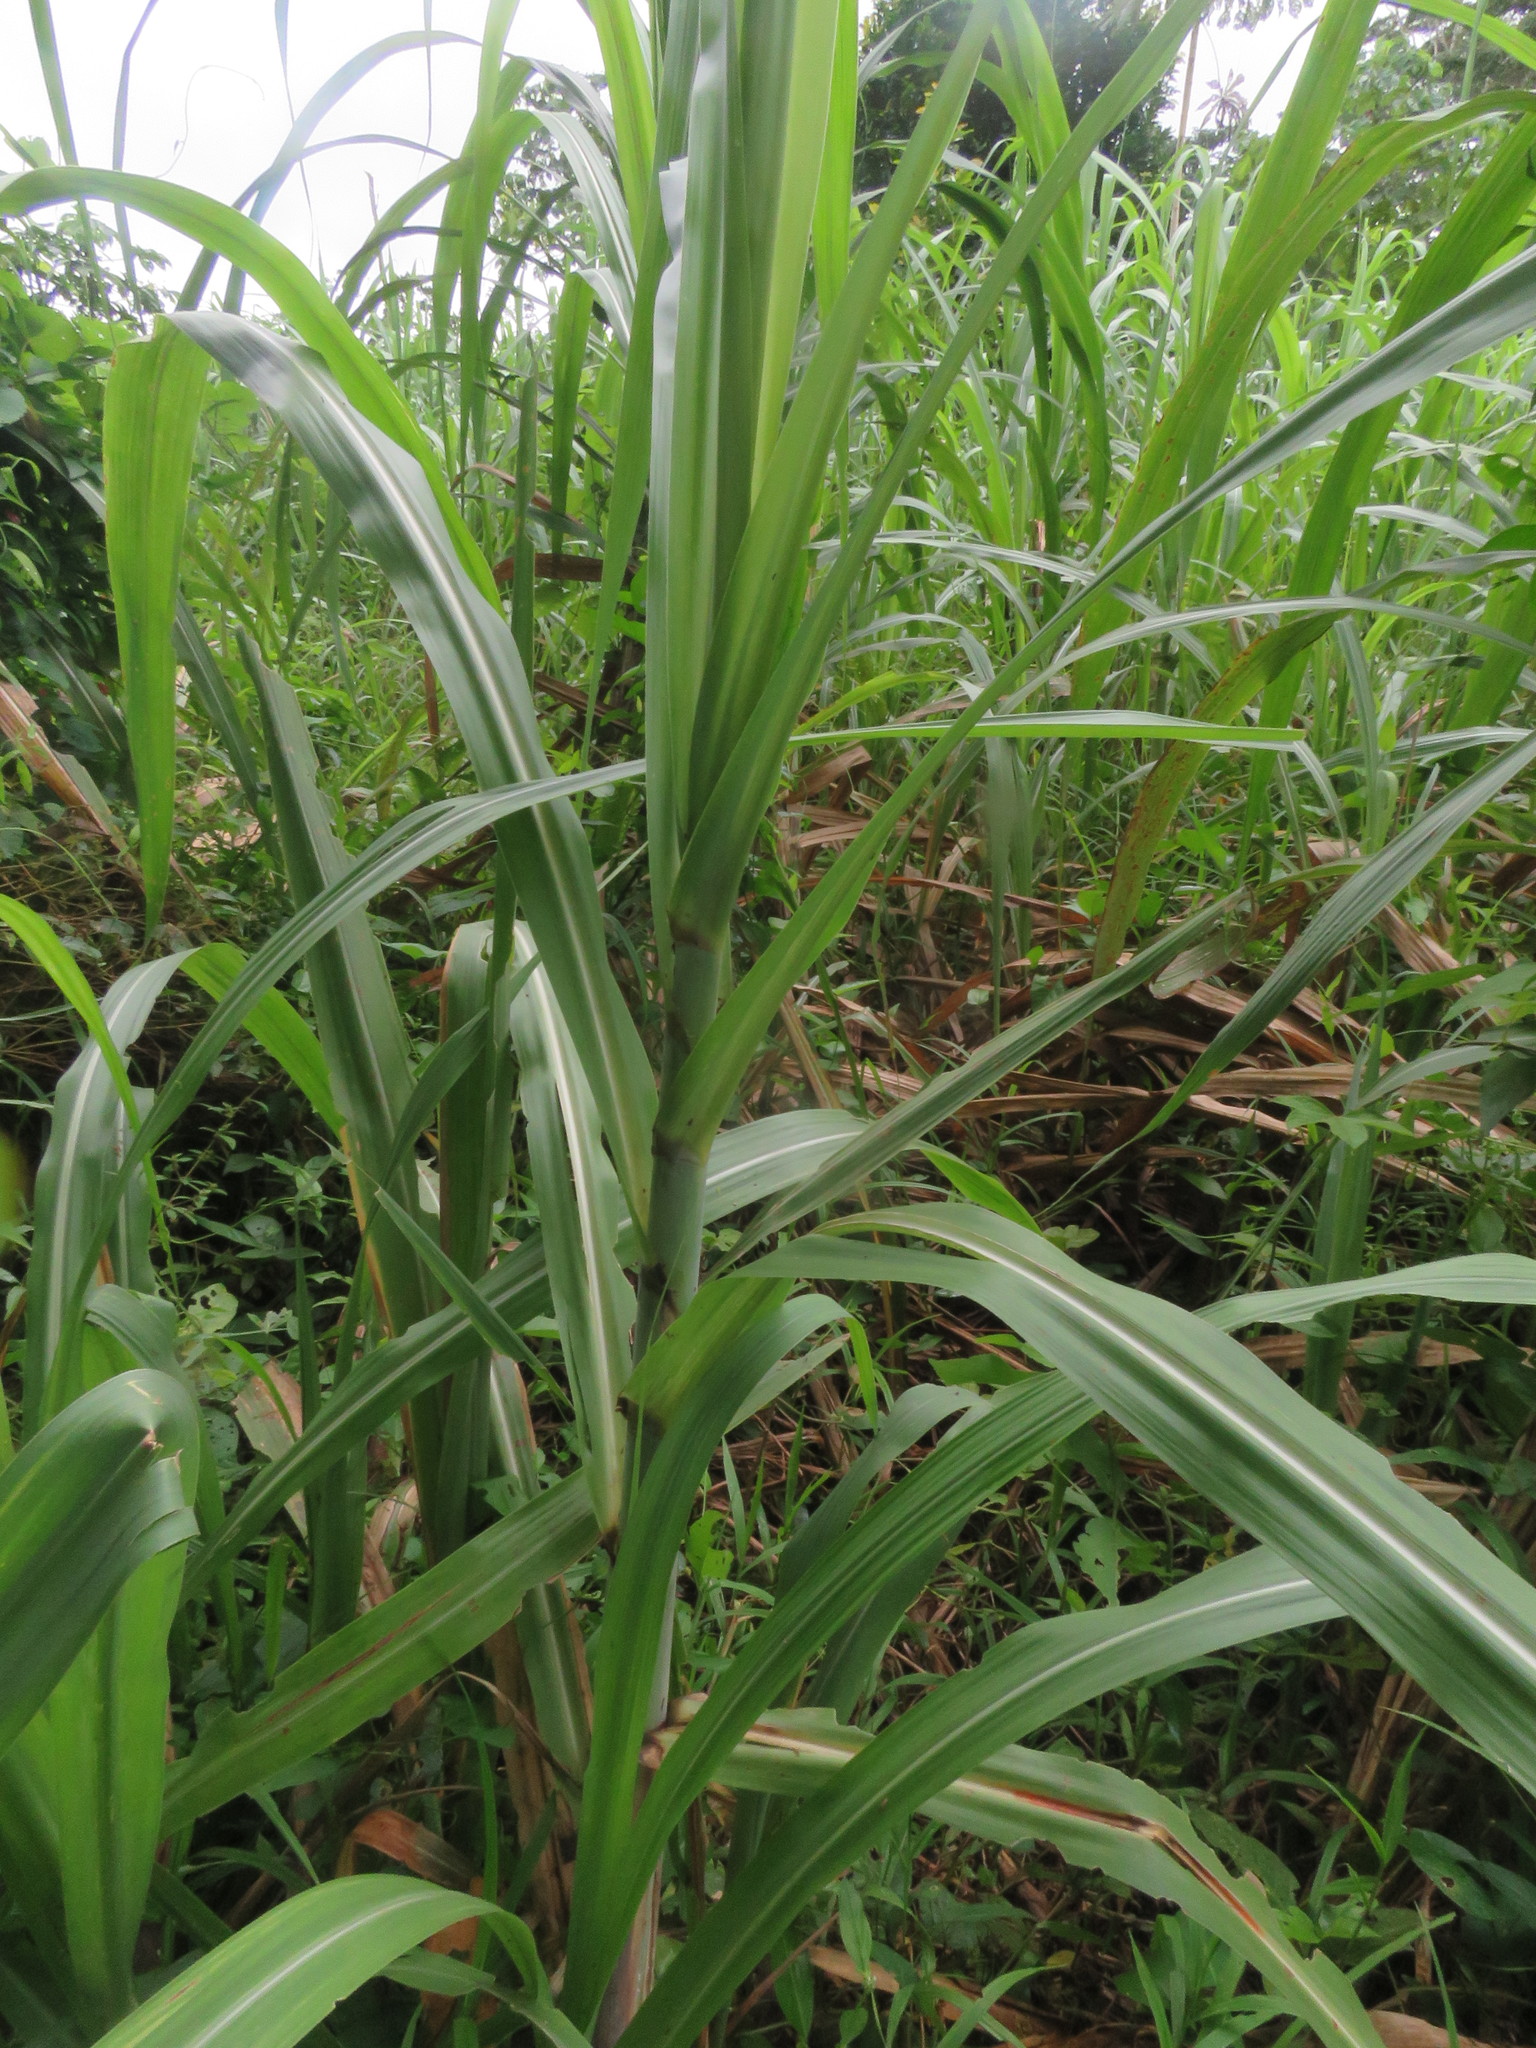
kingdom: Plantae
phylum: Tracheophyta
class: Liliopsida
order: Poales
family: Poaceae
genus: Saccharum
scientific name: Saccharum officinarum
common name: Sugarcane
